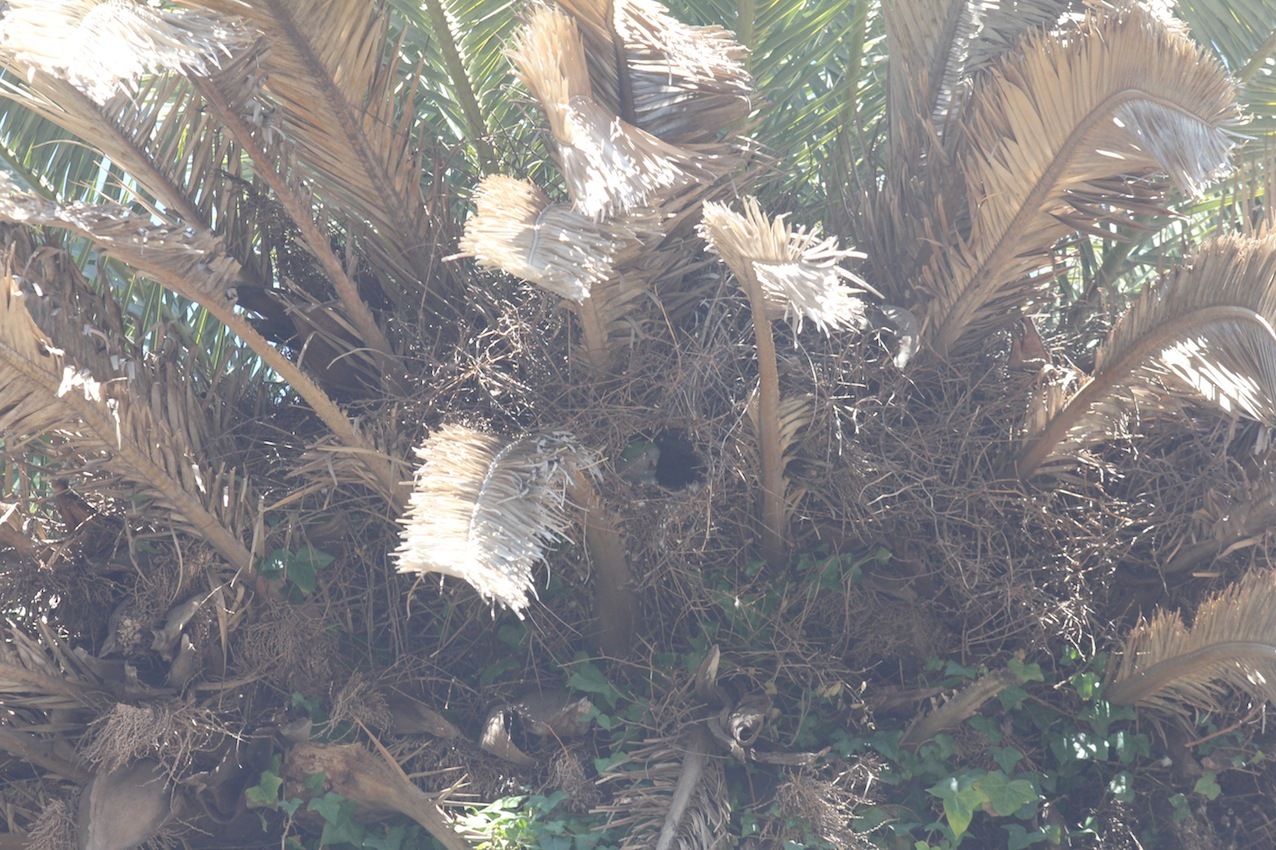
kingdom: Animalia
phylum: Chordata
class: Aves
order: Psittaciformes
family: Psittacidae
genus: Myiopsitta
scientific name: Myiopsitta monachus
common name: Monk parakeet
